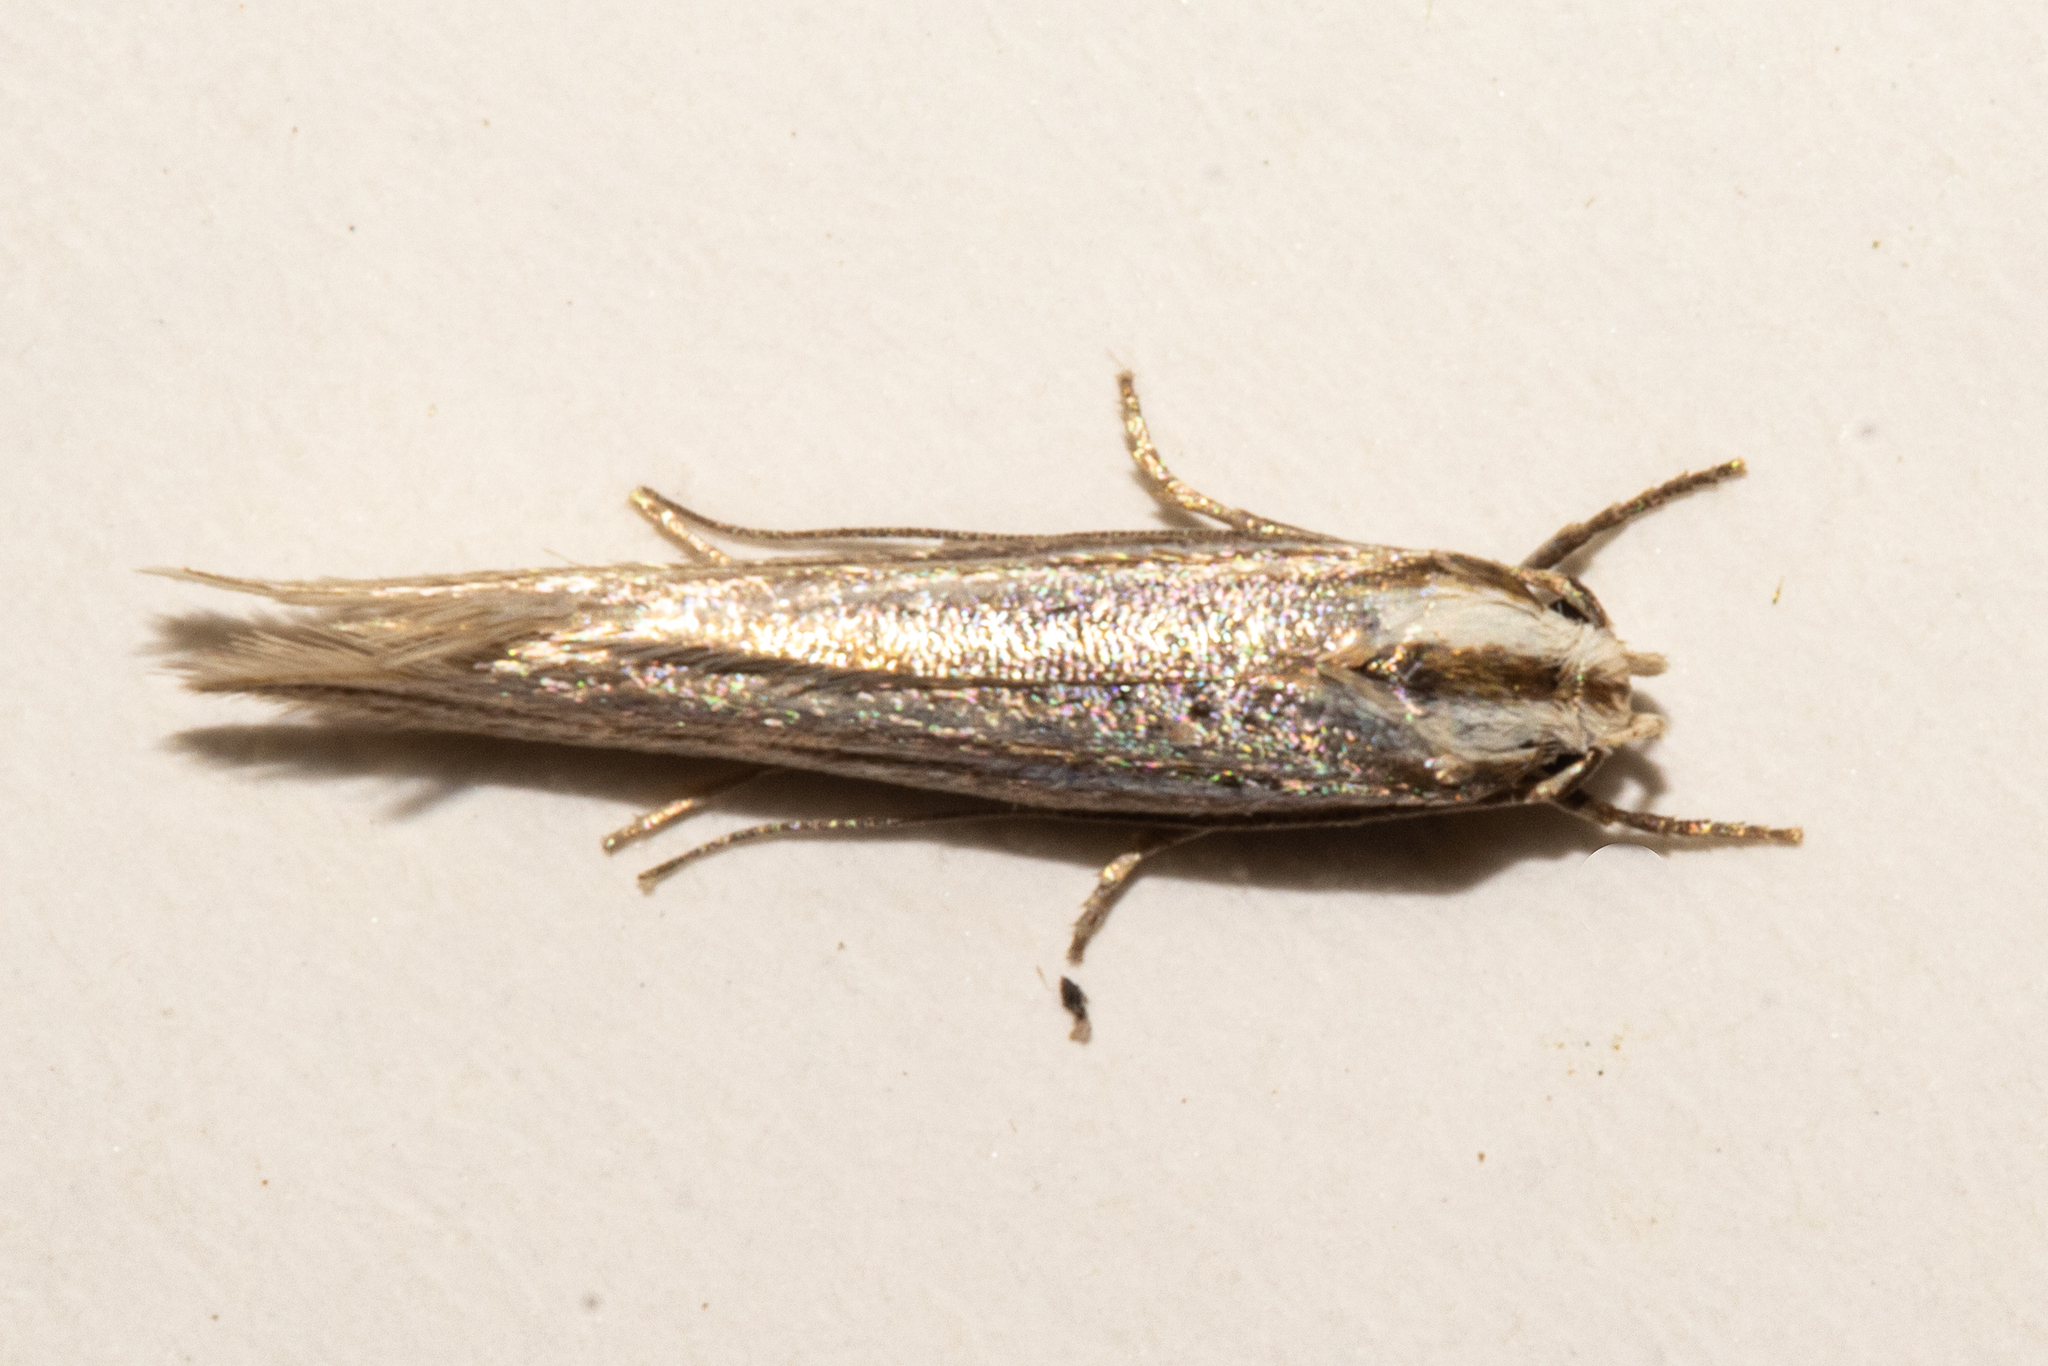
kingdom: Animalia
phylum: Arthropoda
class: Insecta
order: Lepidoptera
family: Elachistidae
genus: Elachista
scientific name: Elachista thallophora
